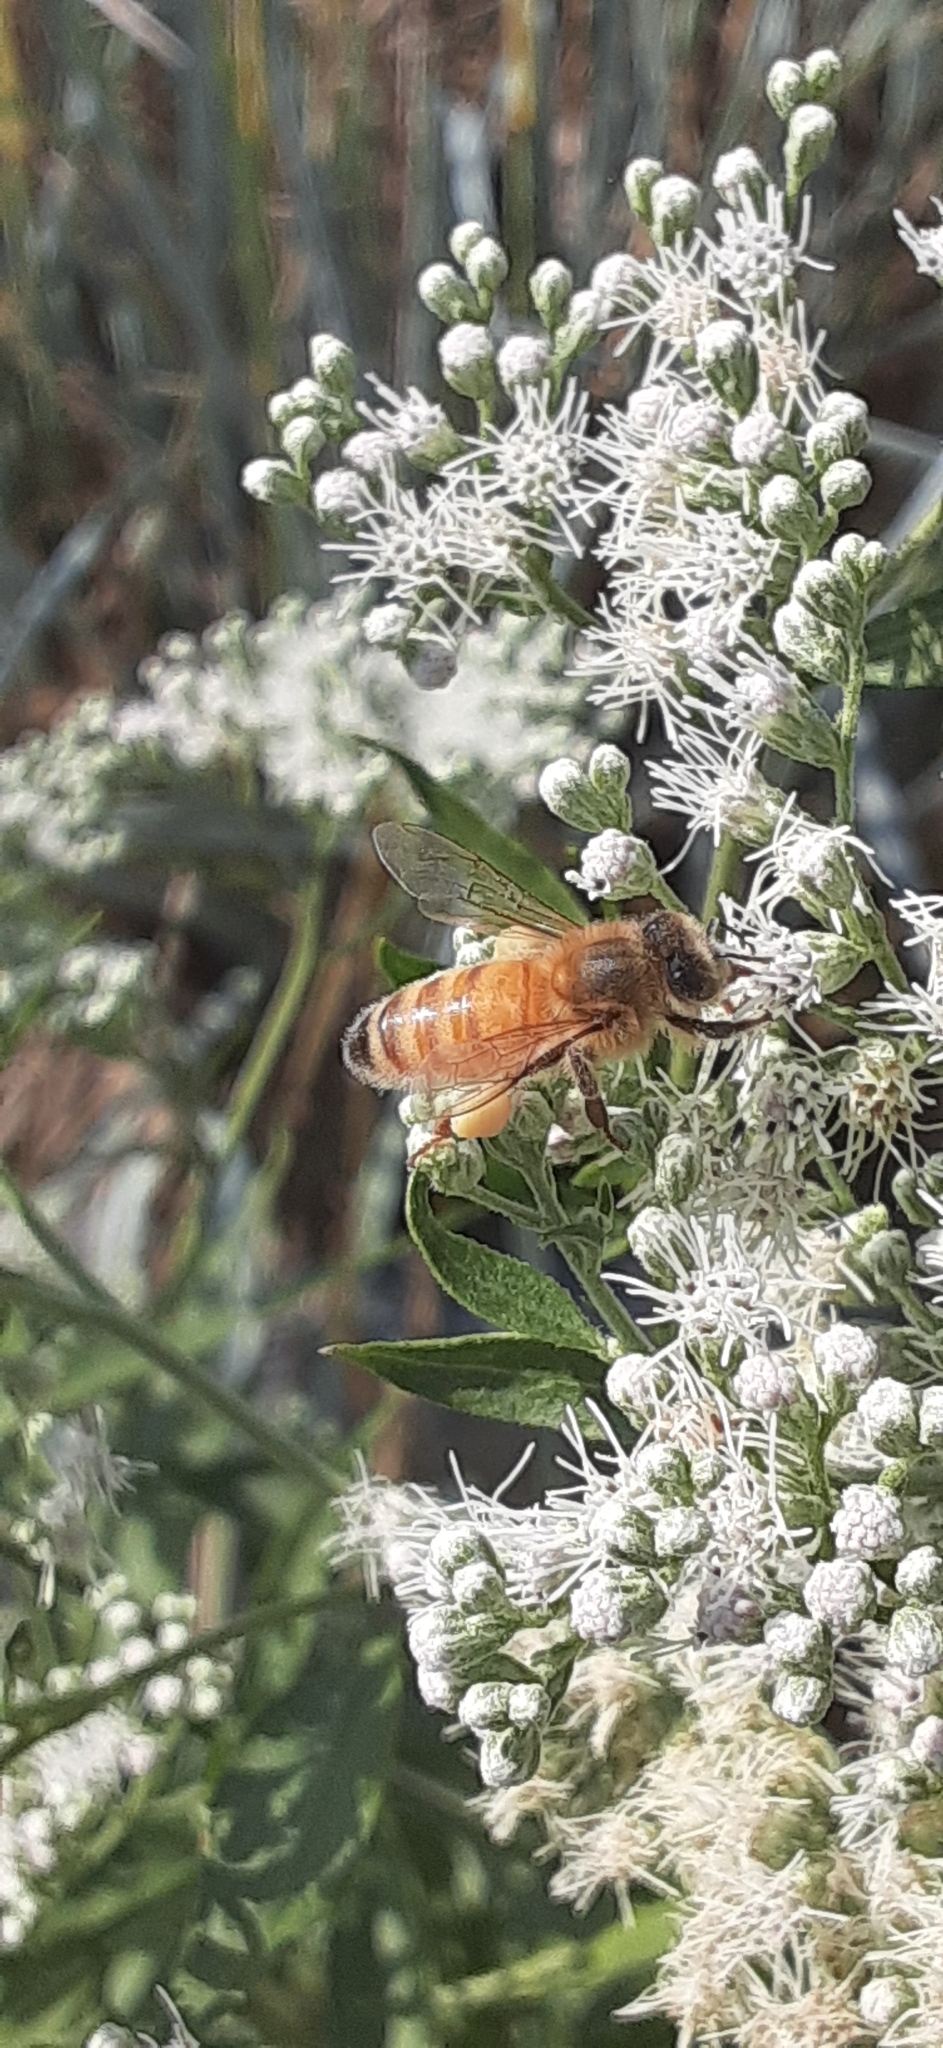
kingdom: Animalia
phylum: Arthropoda
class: Insecta
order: Hymenoptera
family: Apidae
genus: Apis
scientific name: Apis mellifera
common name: Honey bee
